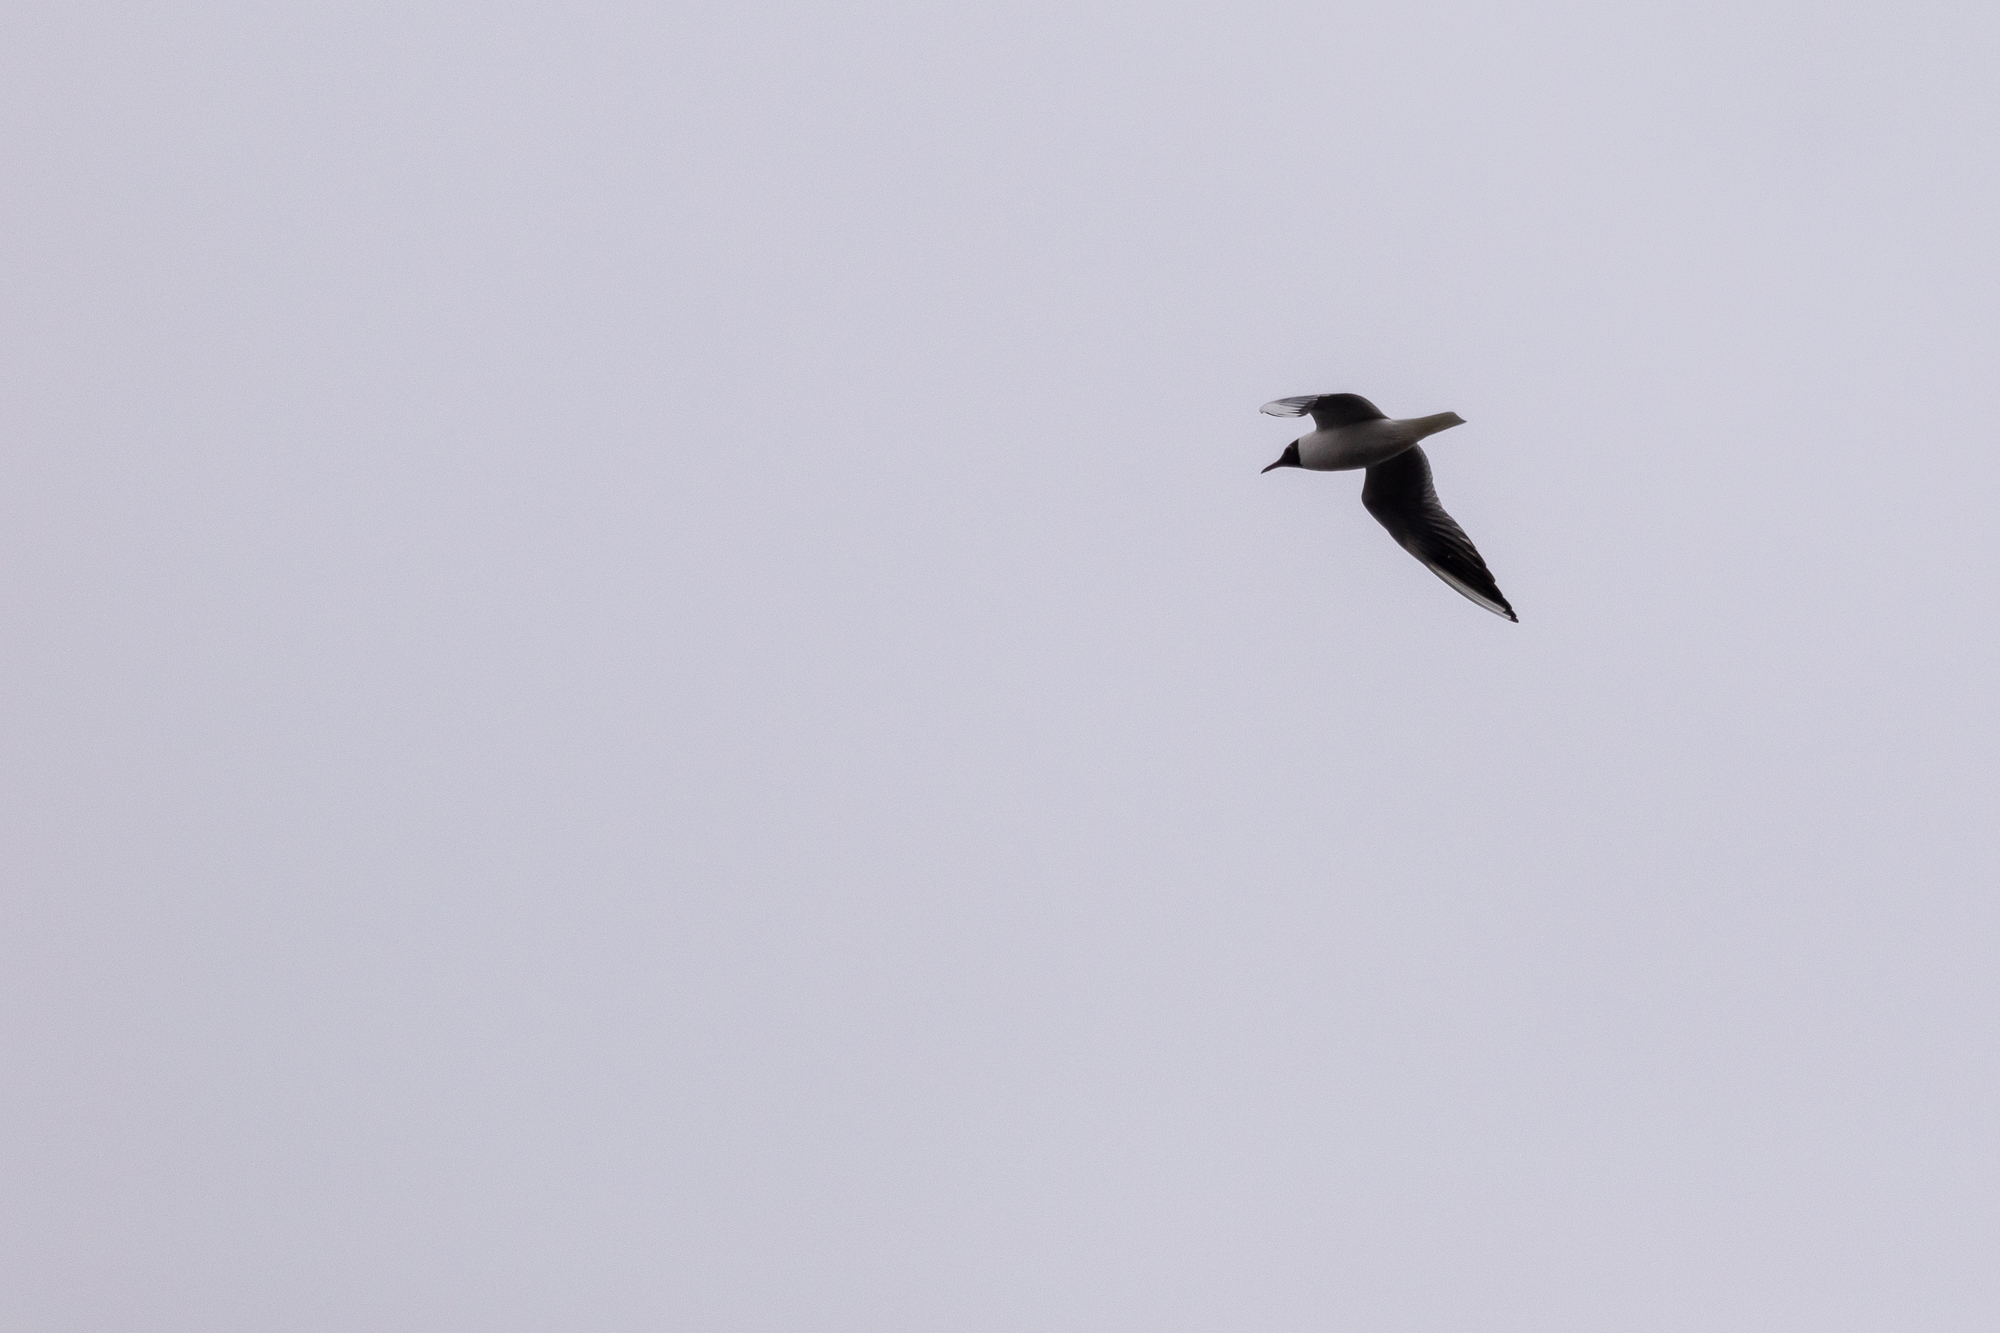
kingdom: Animalia
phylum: Chordata
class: Aves
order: Charadriiformes
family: Laridae
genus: Chroicocephalus
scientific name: Chroicocephalus ridibundus
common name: Black-headed gull
